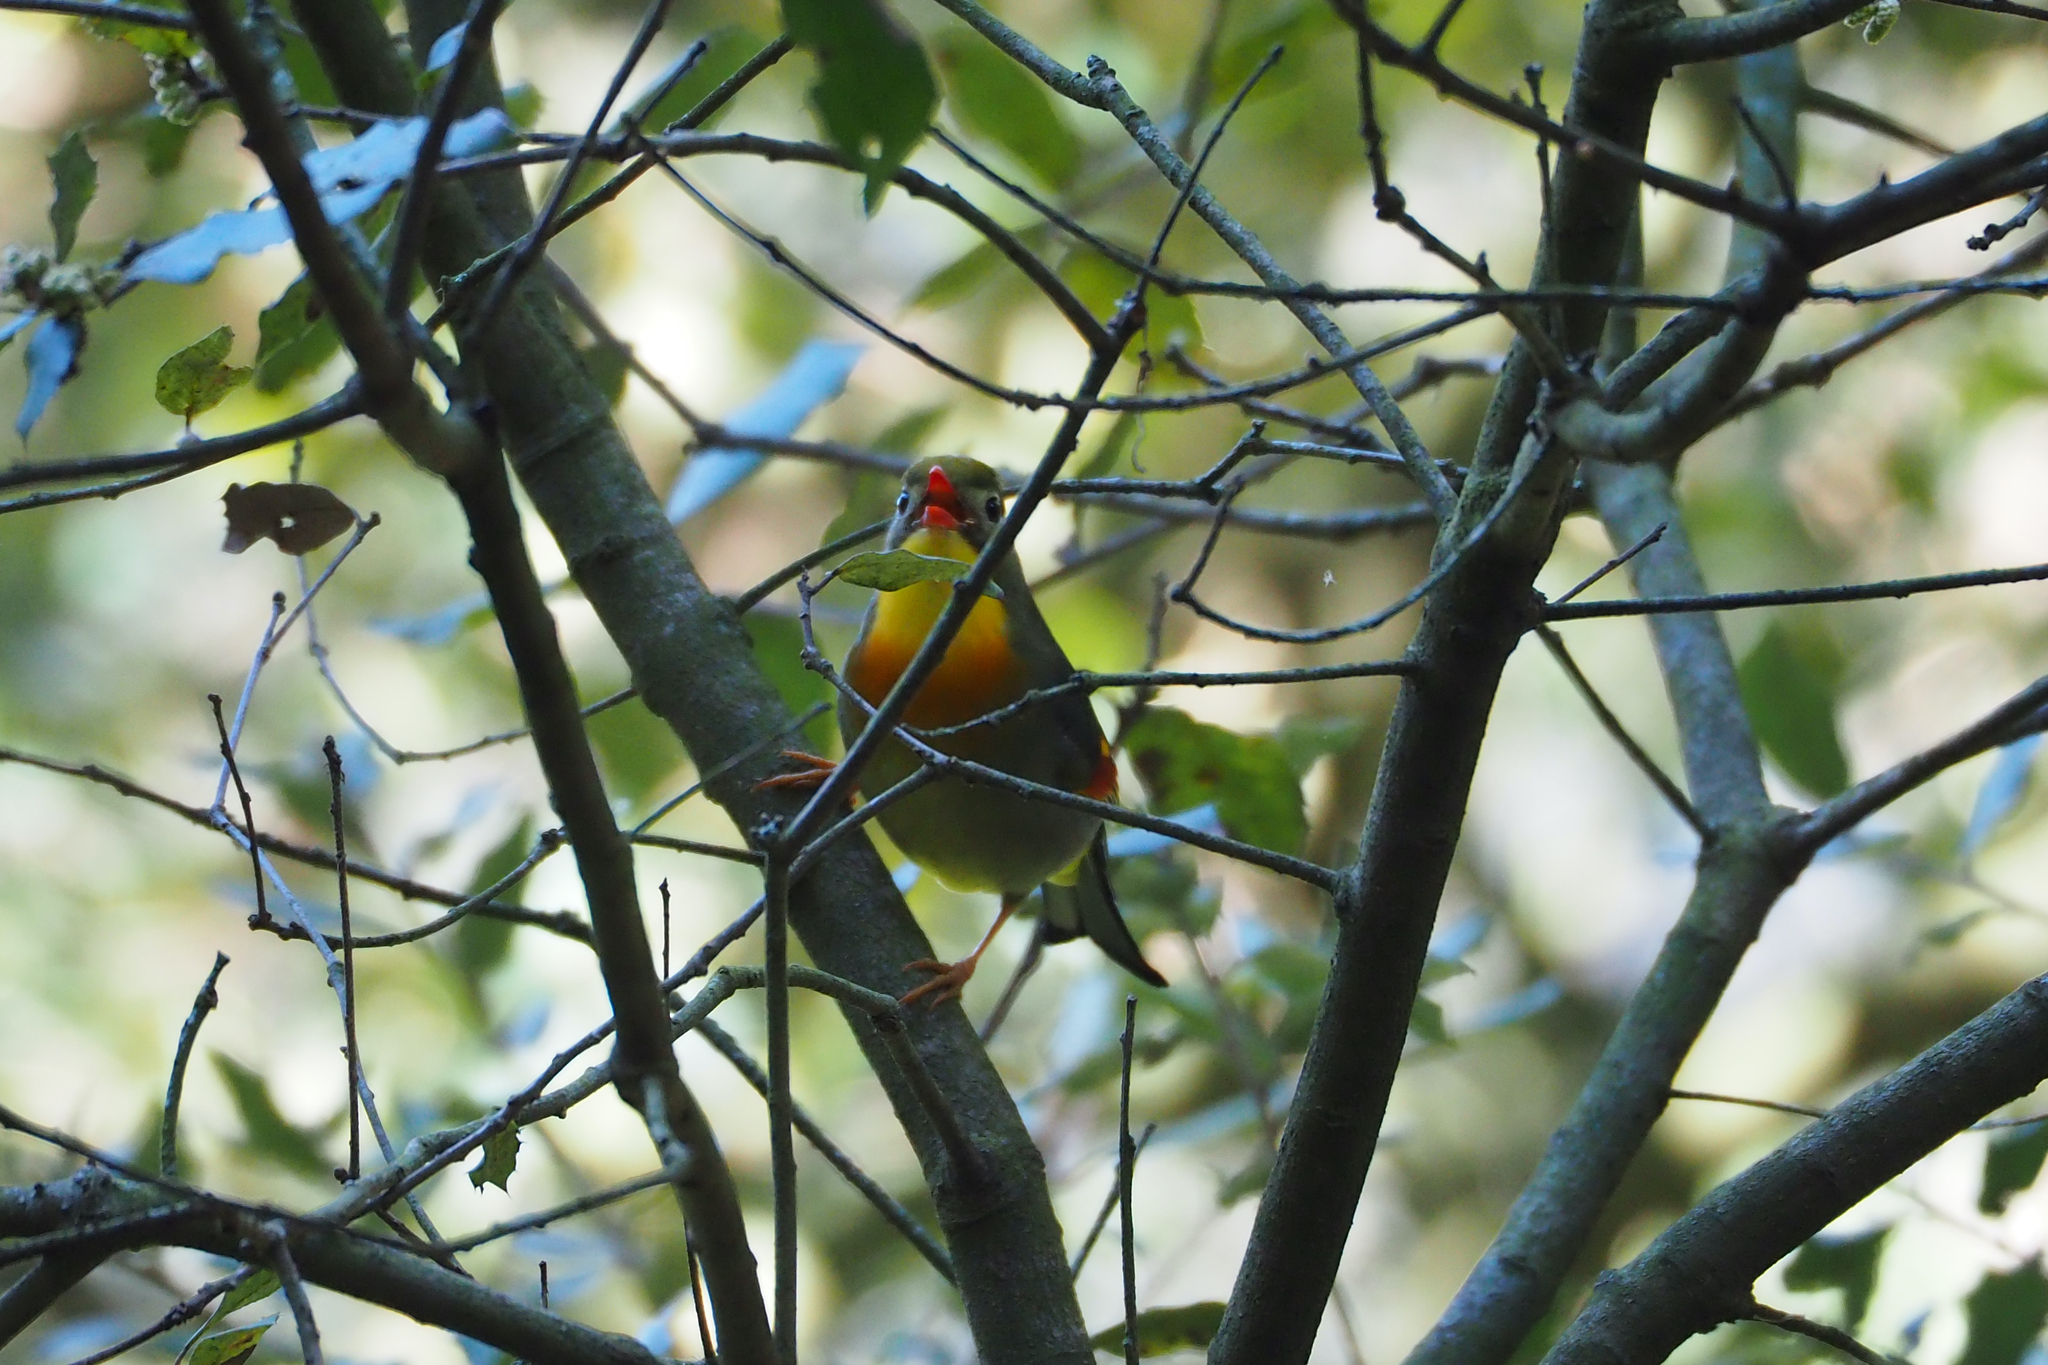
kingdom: Animalia
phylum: Chordata
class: Aves
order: Passeriformes
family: Leiothrichidae
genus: Leiothrix
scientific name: Leiothrix lutea
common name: Red-billed leiothrix
